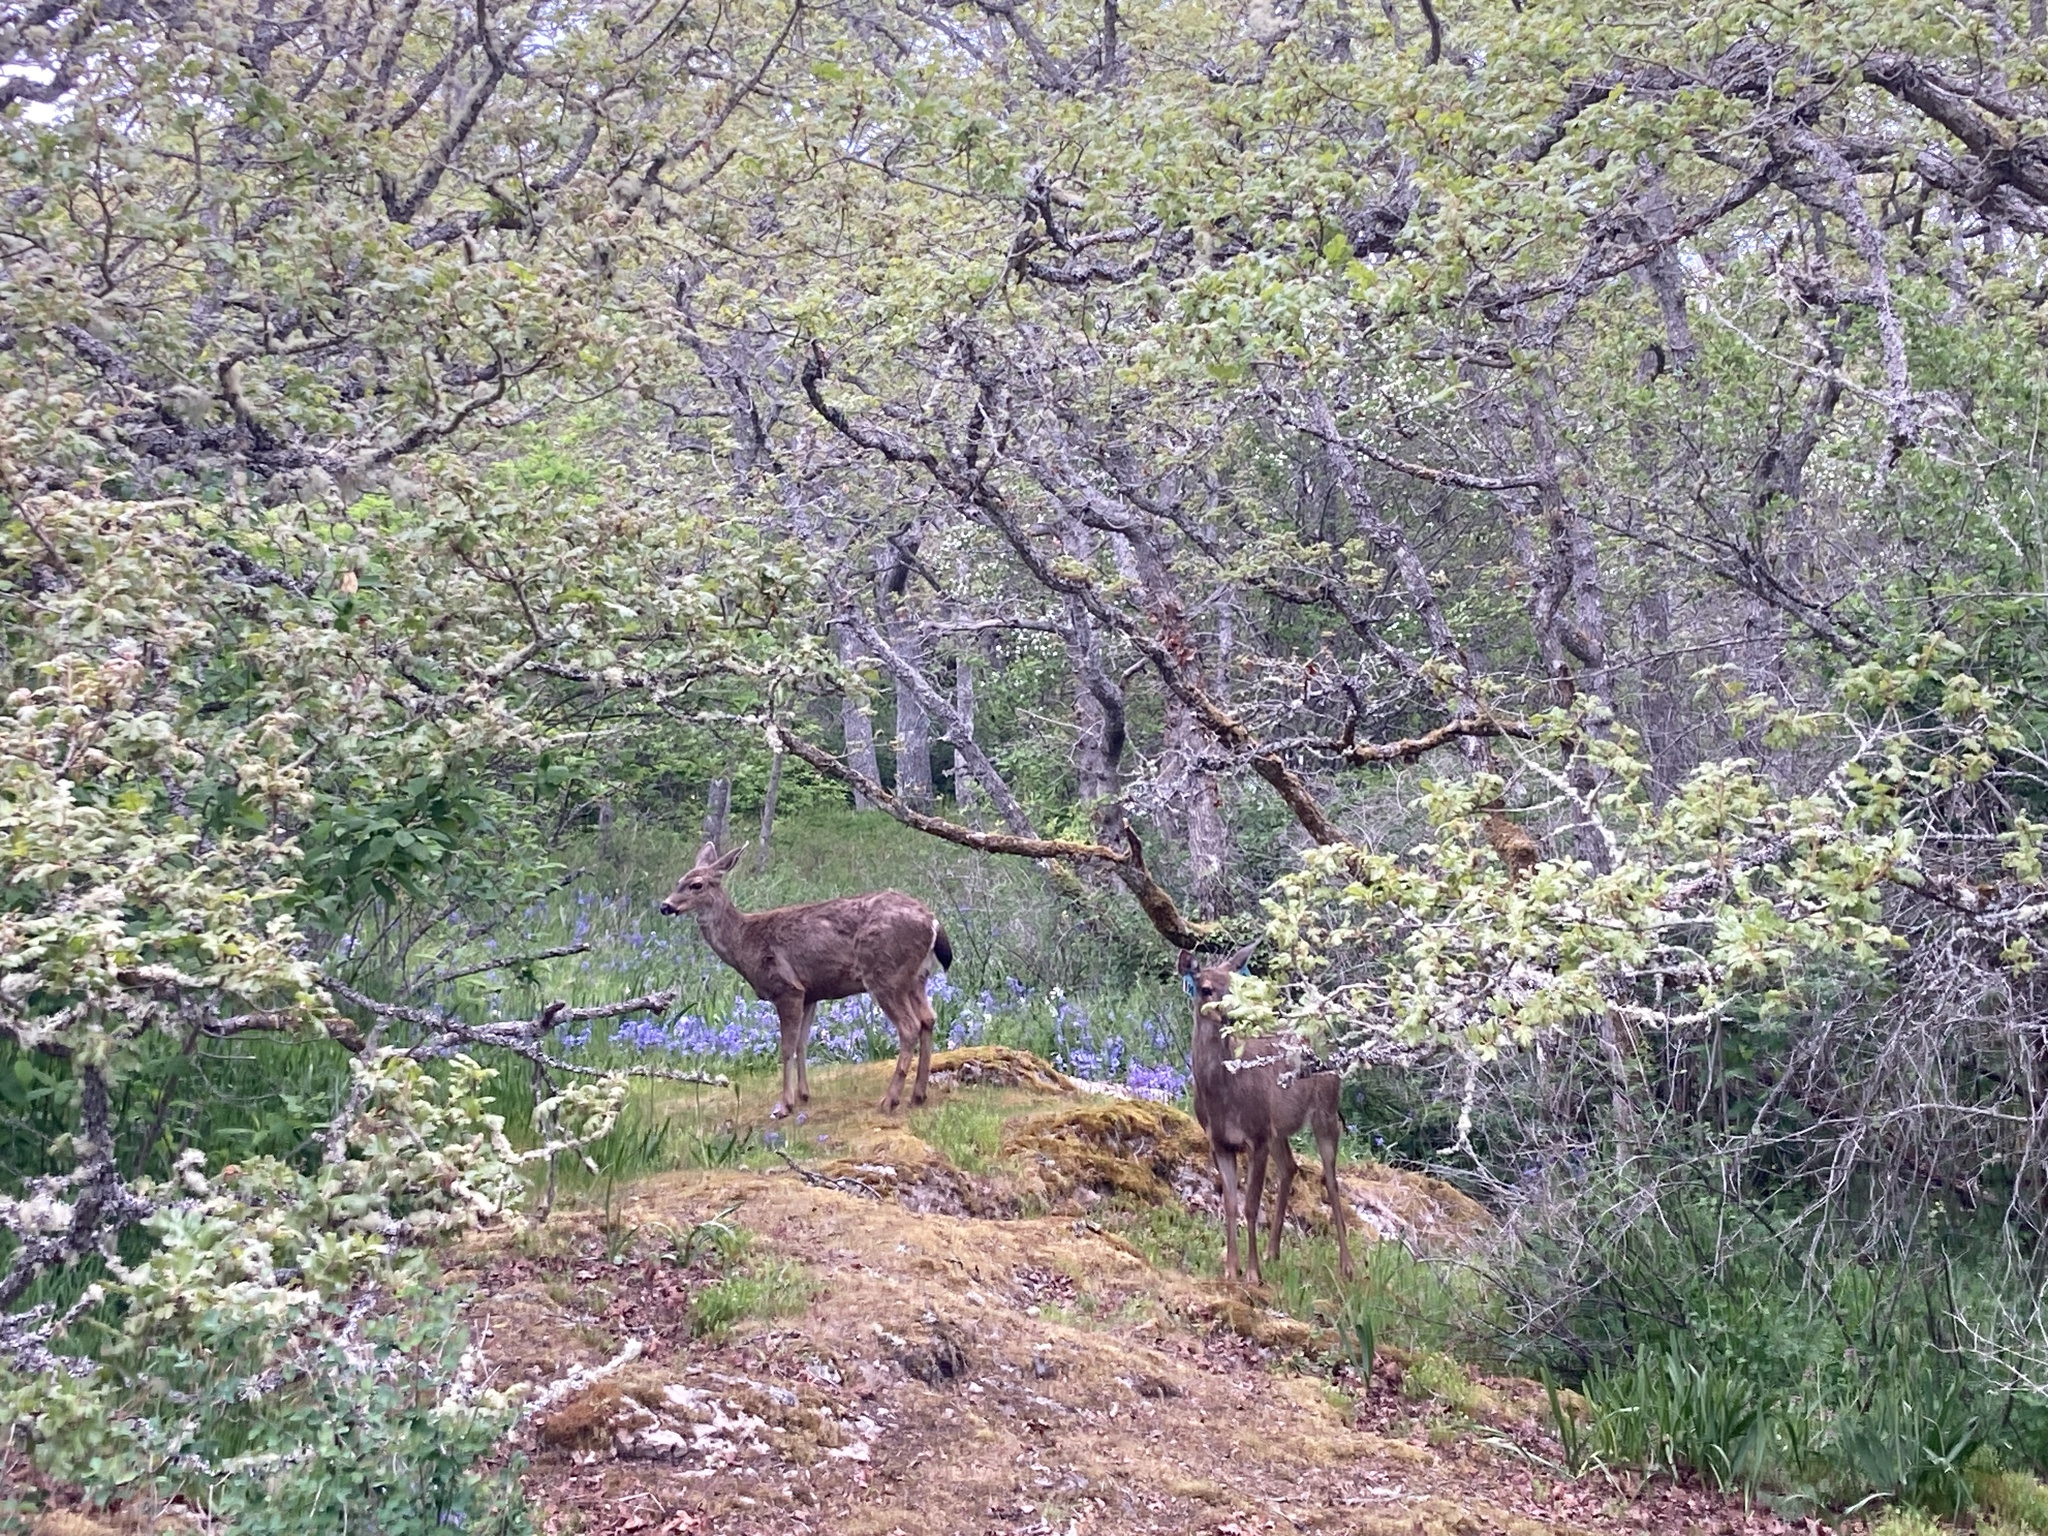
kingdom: Animalia
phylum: Chordata
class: Mammalia
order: Artiodactyla
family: Cervidae
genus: Odocoileus
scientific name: Odocoileus hemionus
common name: Mule deer
